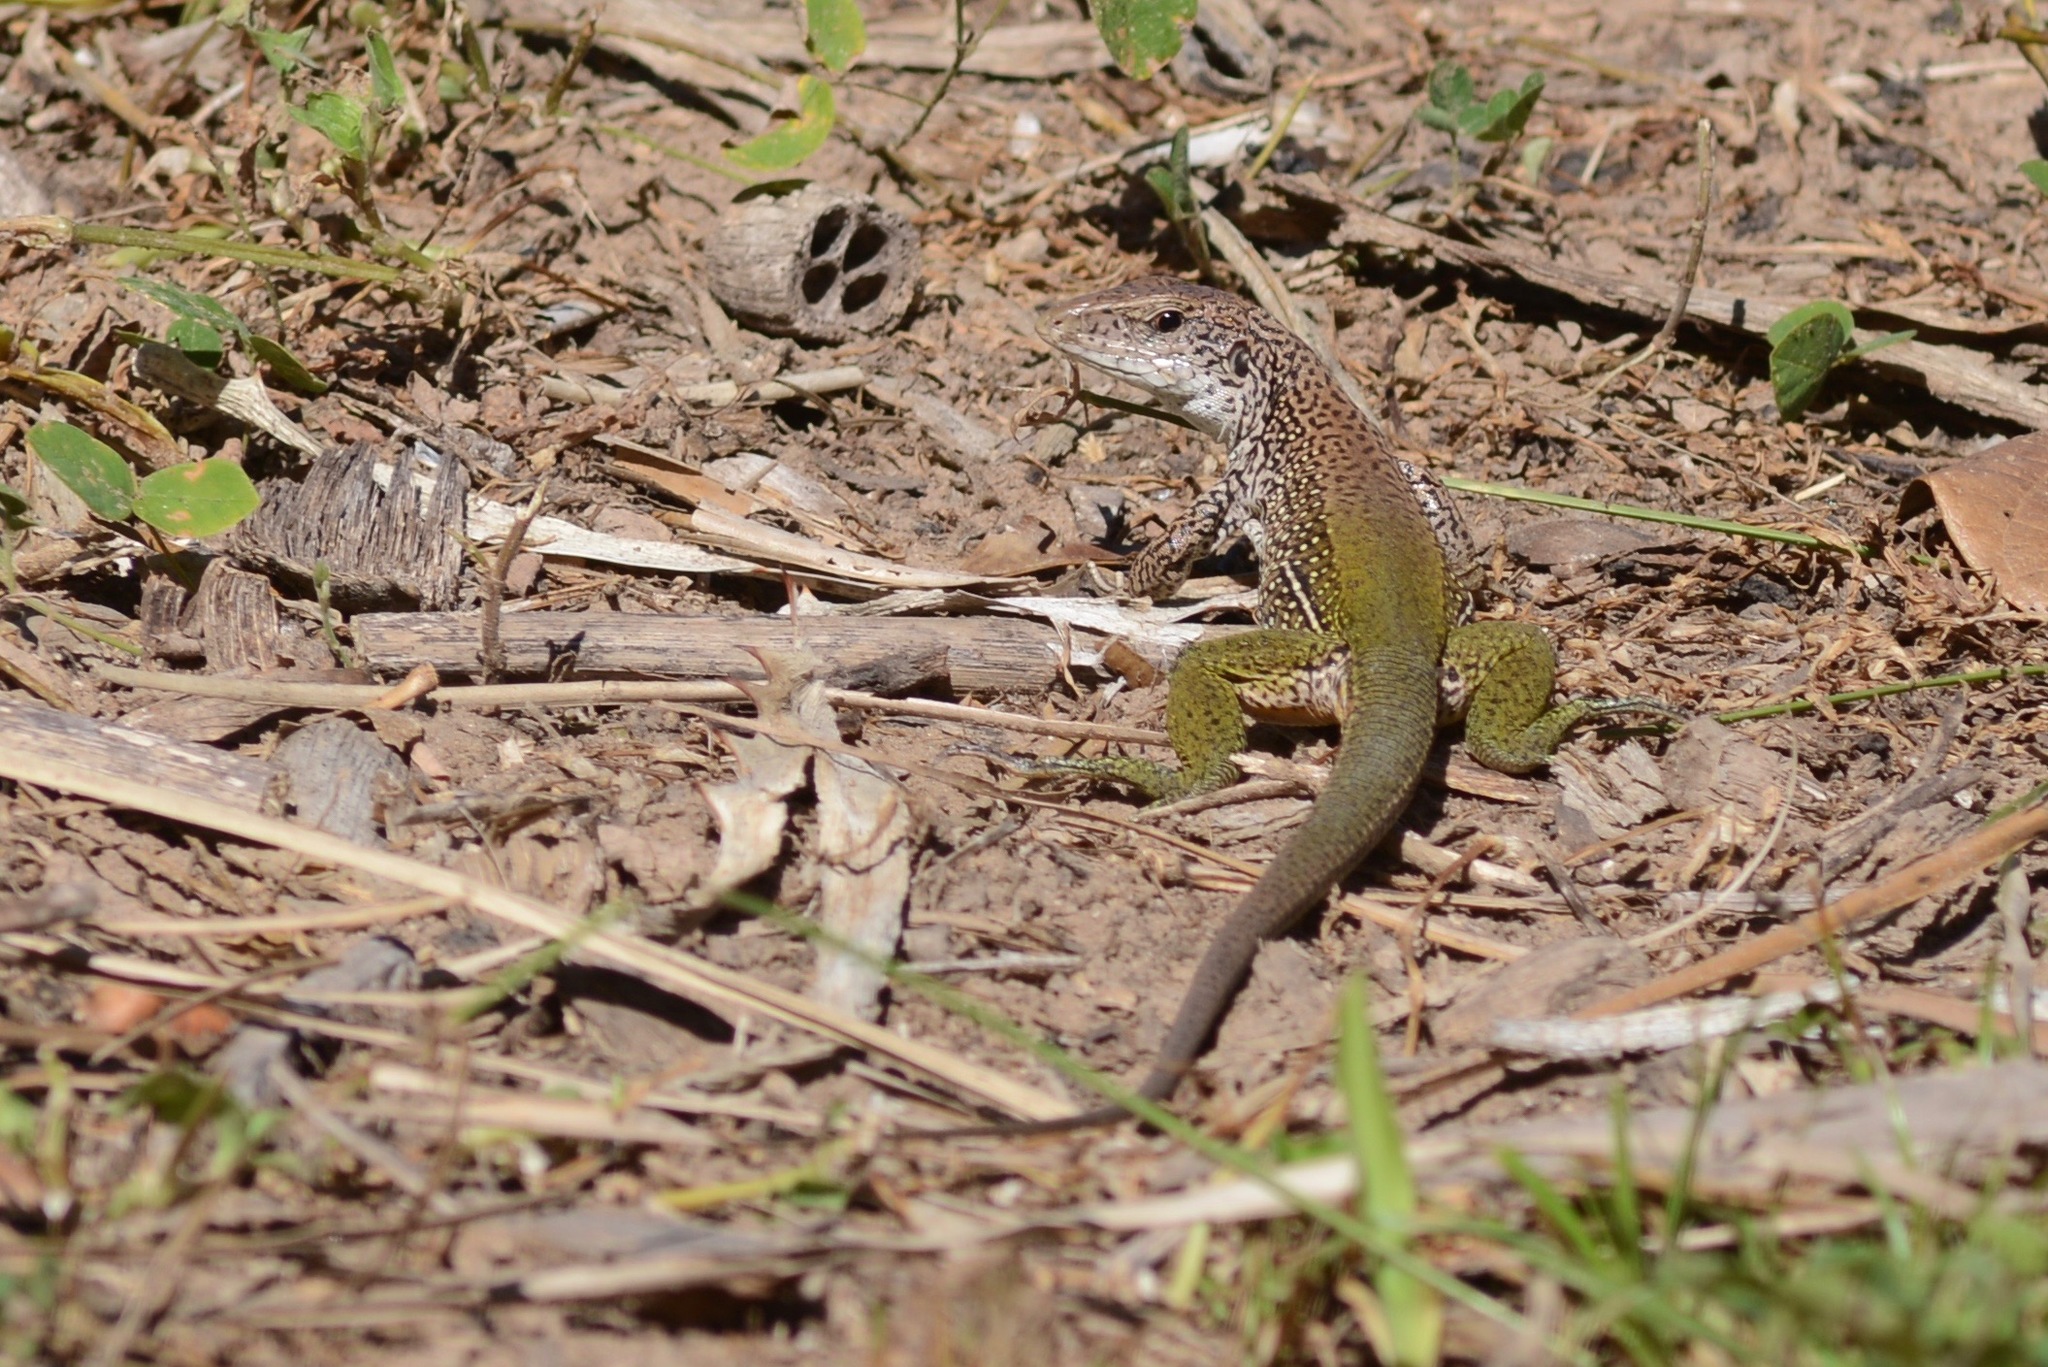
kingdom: Animalia
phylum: Chordata
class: Squamata
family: Teiidae
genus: Ameiva
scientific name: Ameiva ameiva
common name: Giant ameiva
